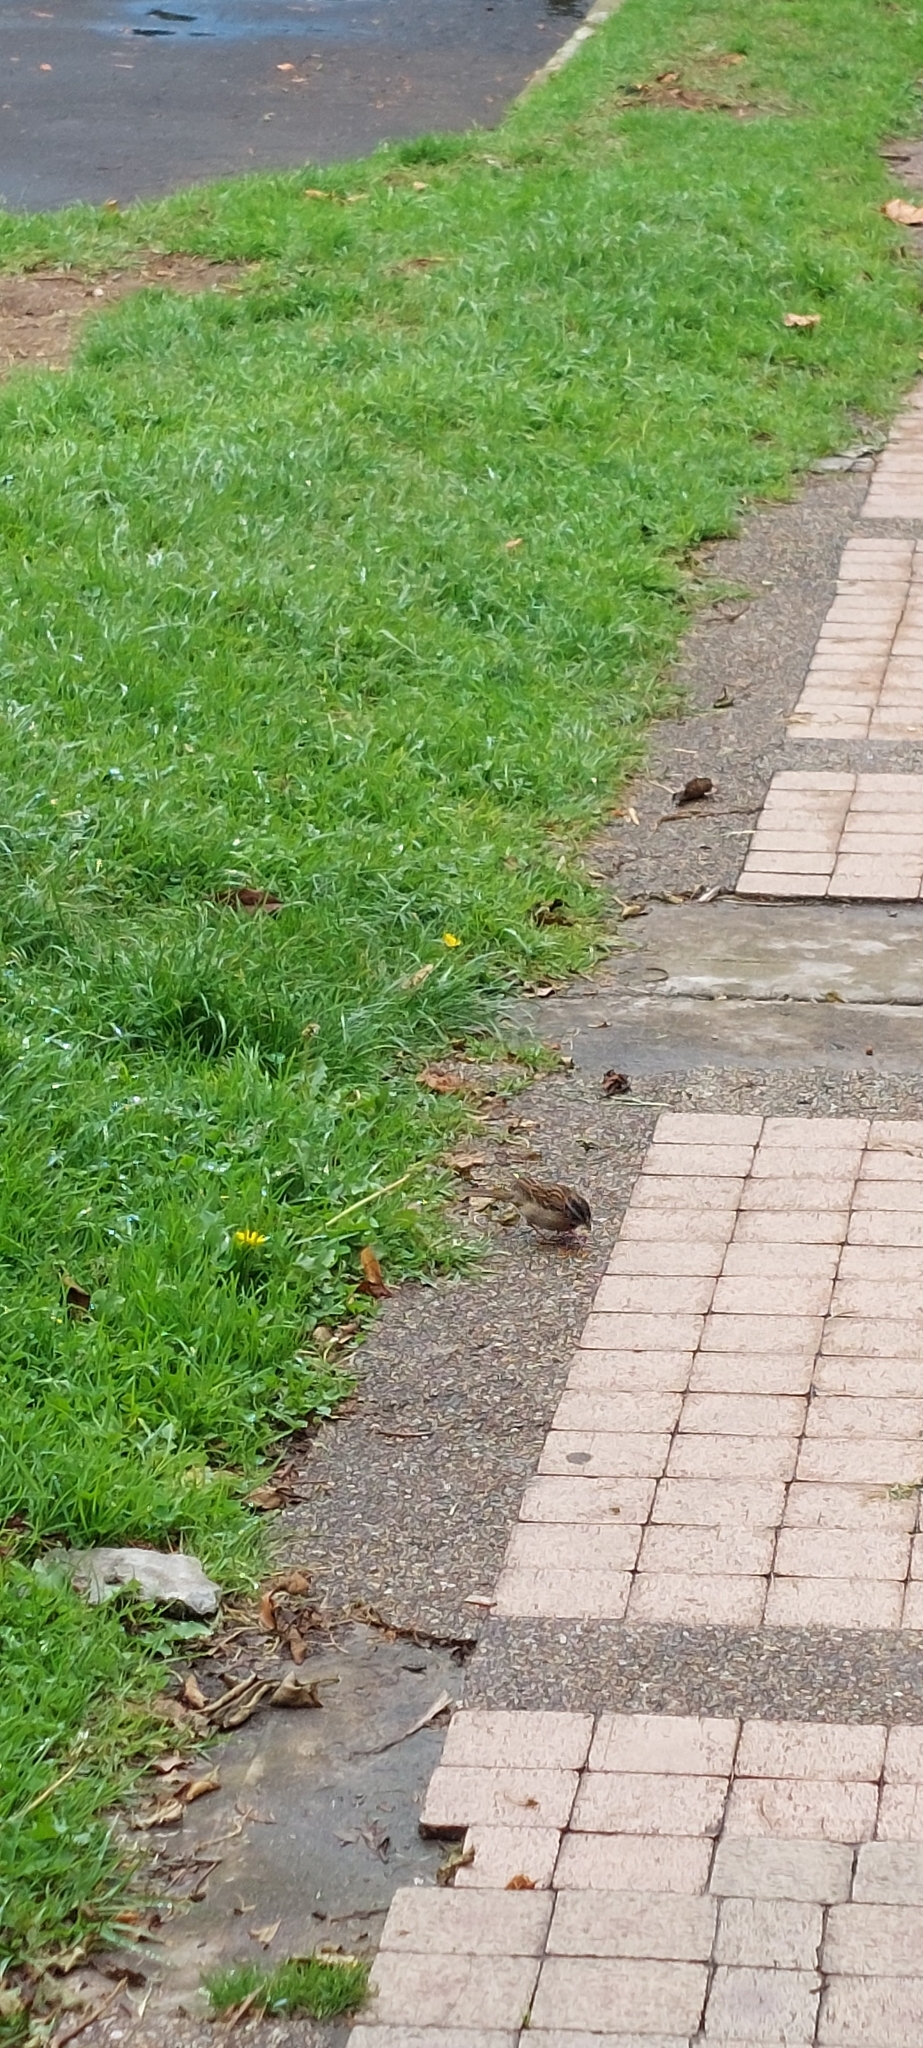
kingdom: Animalia
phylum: Chordata
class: Aves
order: Passeriformes
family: Passerellidae
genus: Zonotrichia
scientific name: Zonotrichia capensis
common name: Rufous-collared sparrow
